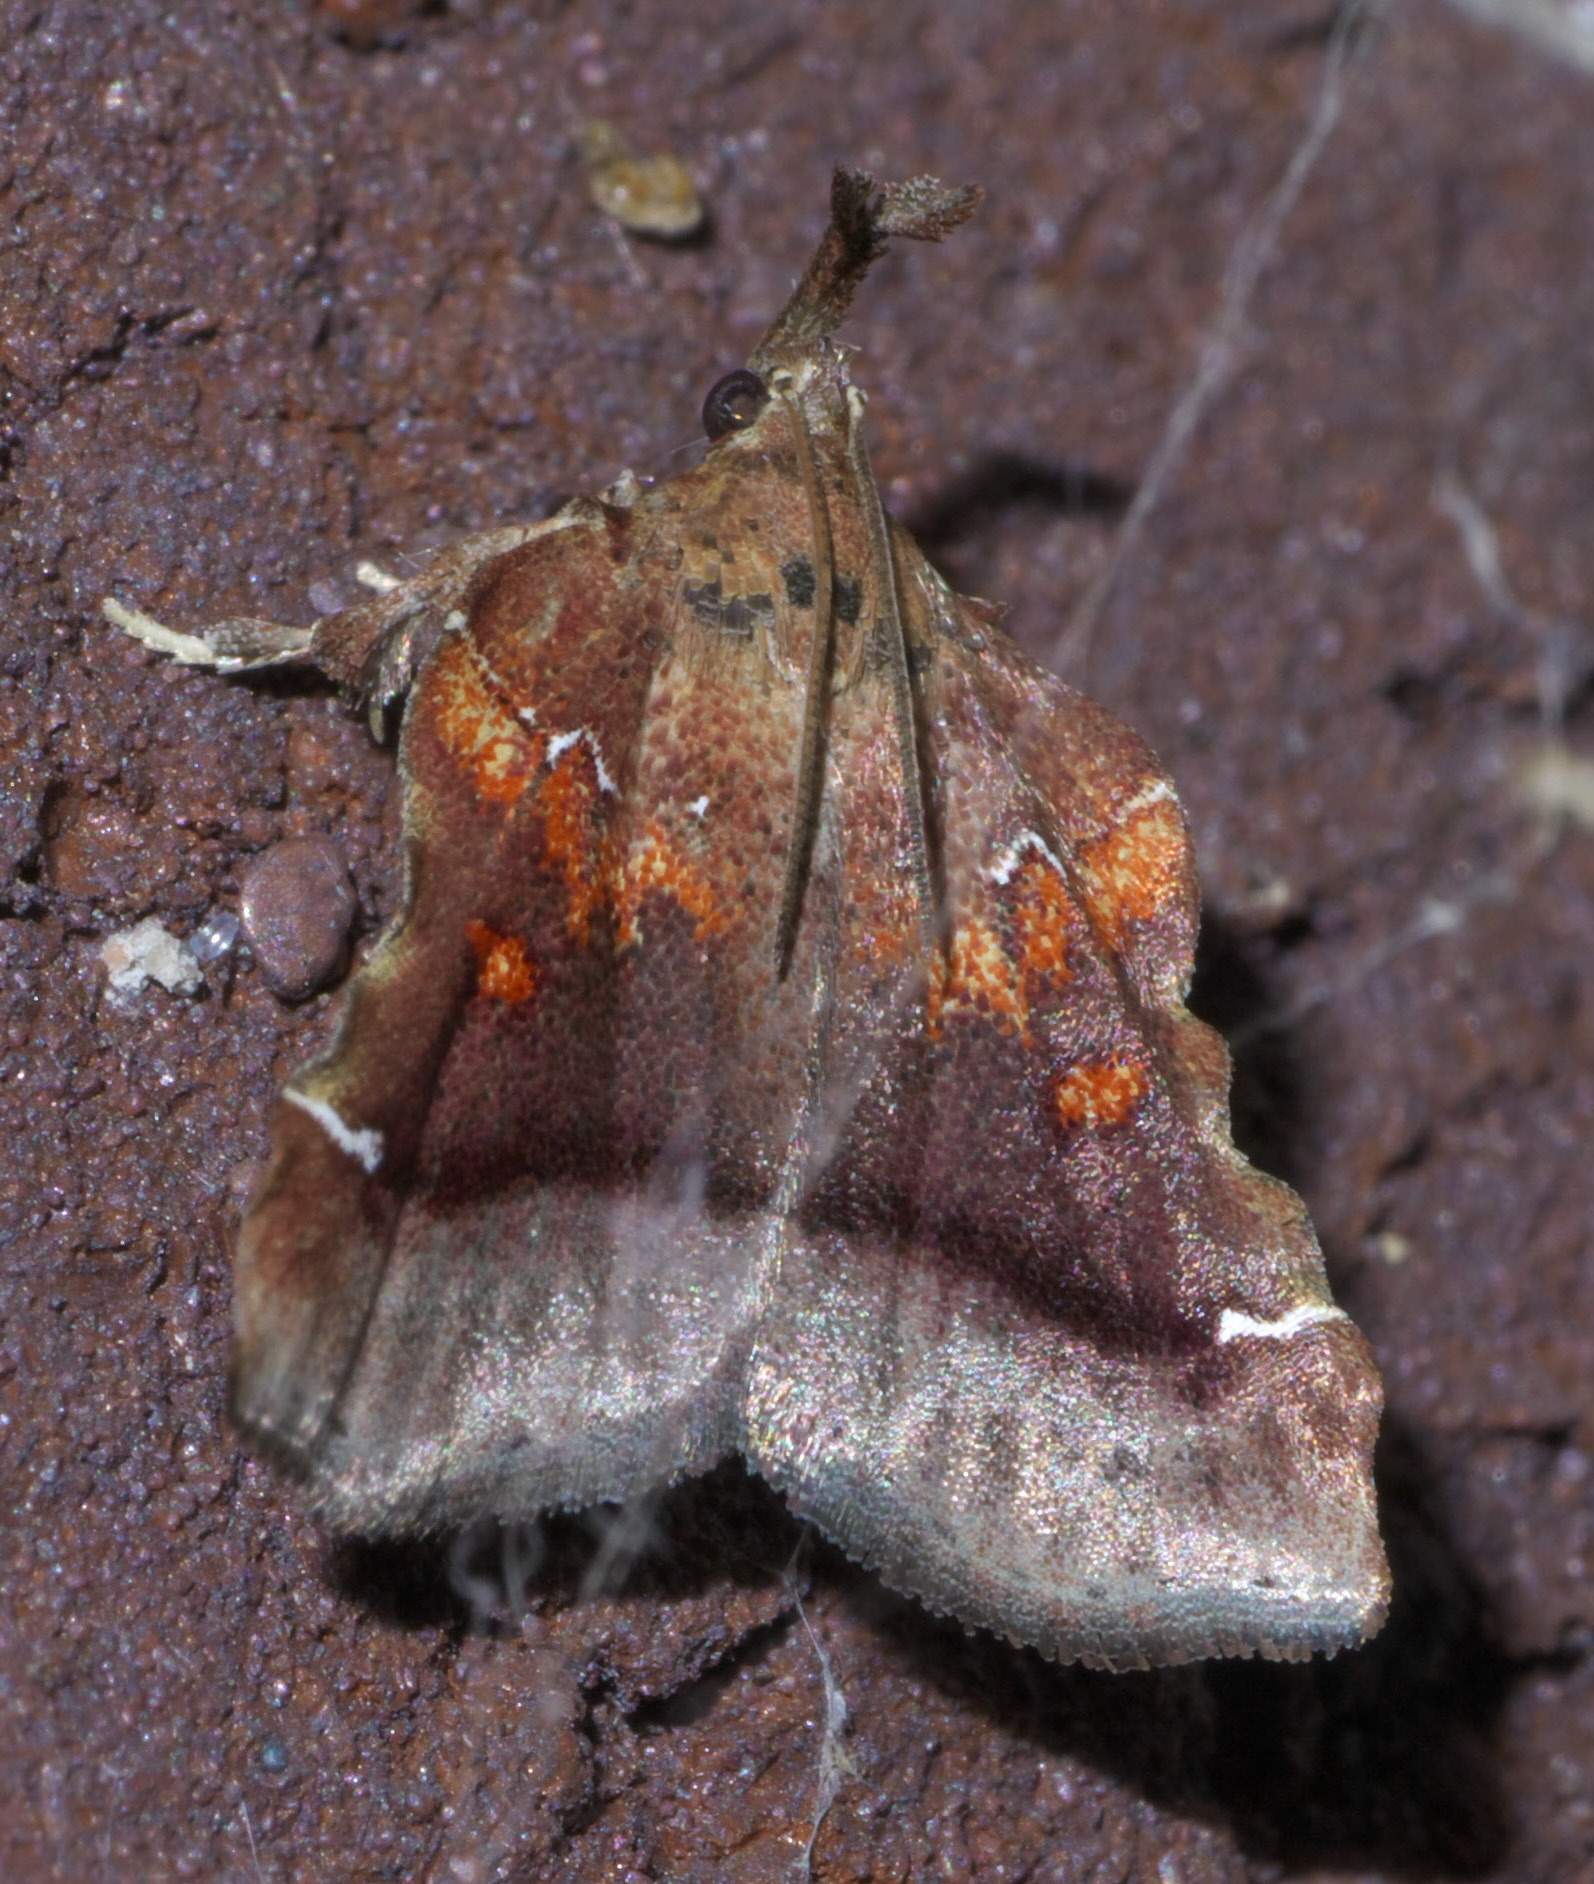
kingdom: Animalia
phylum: Arthropoda
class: Insecta
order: Lepidoptera
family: Pyralidae
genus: Clydonopteron
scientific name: Clydonopteron sacculana
